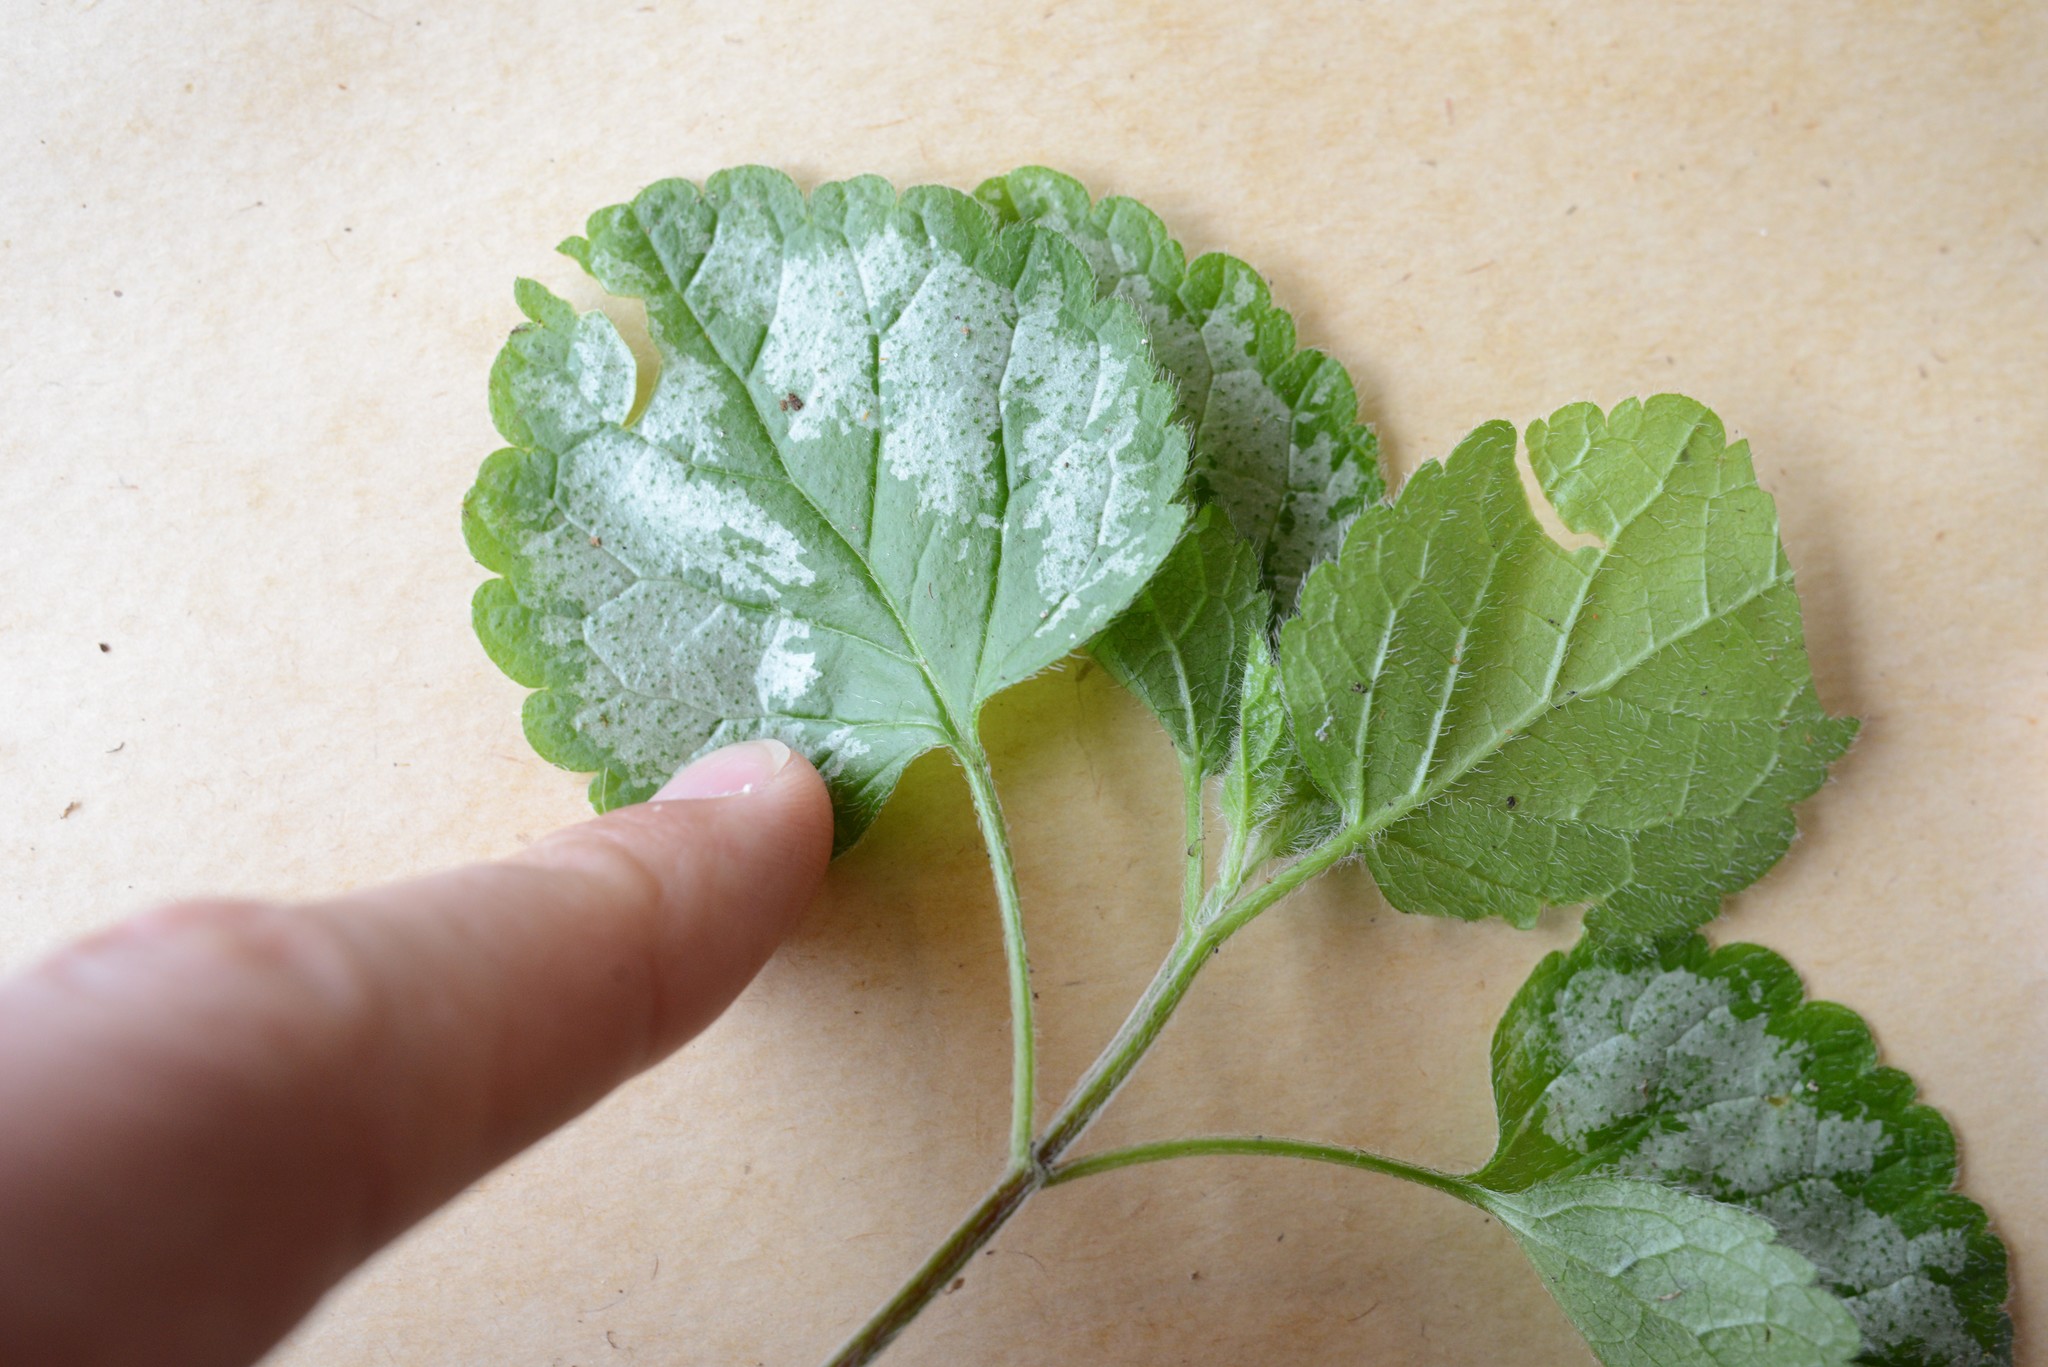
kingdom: Plantae
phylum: Tracheophyta
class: Magnoliopsida
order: Lamiales
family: Lamiaceae
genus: Lamium
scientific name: Lamium galeobdolon
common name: Yellow archangel
